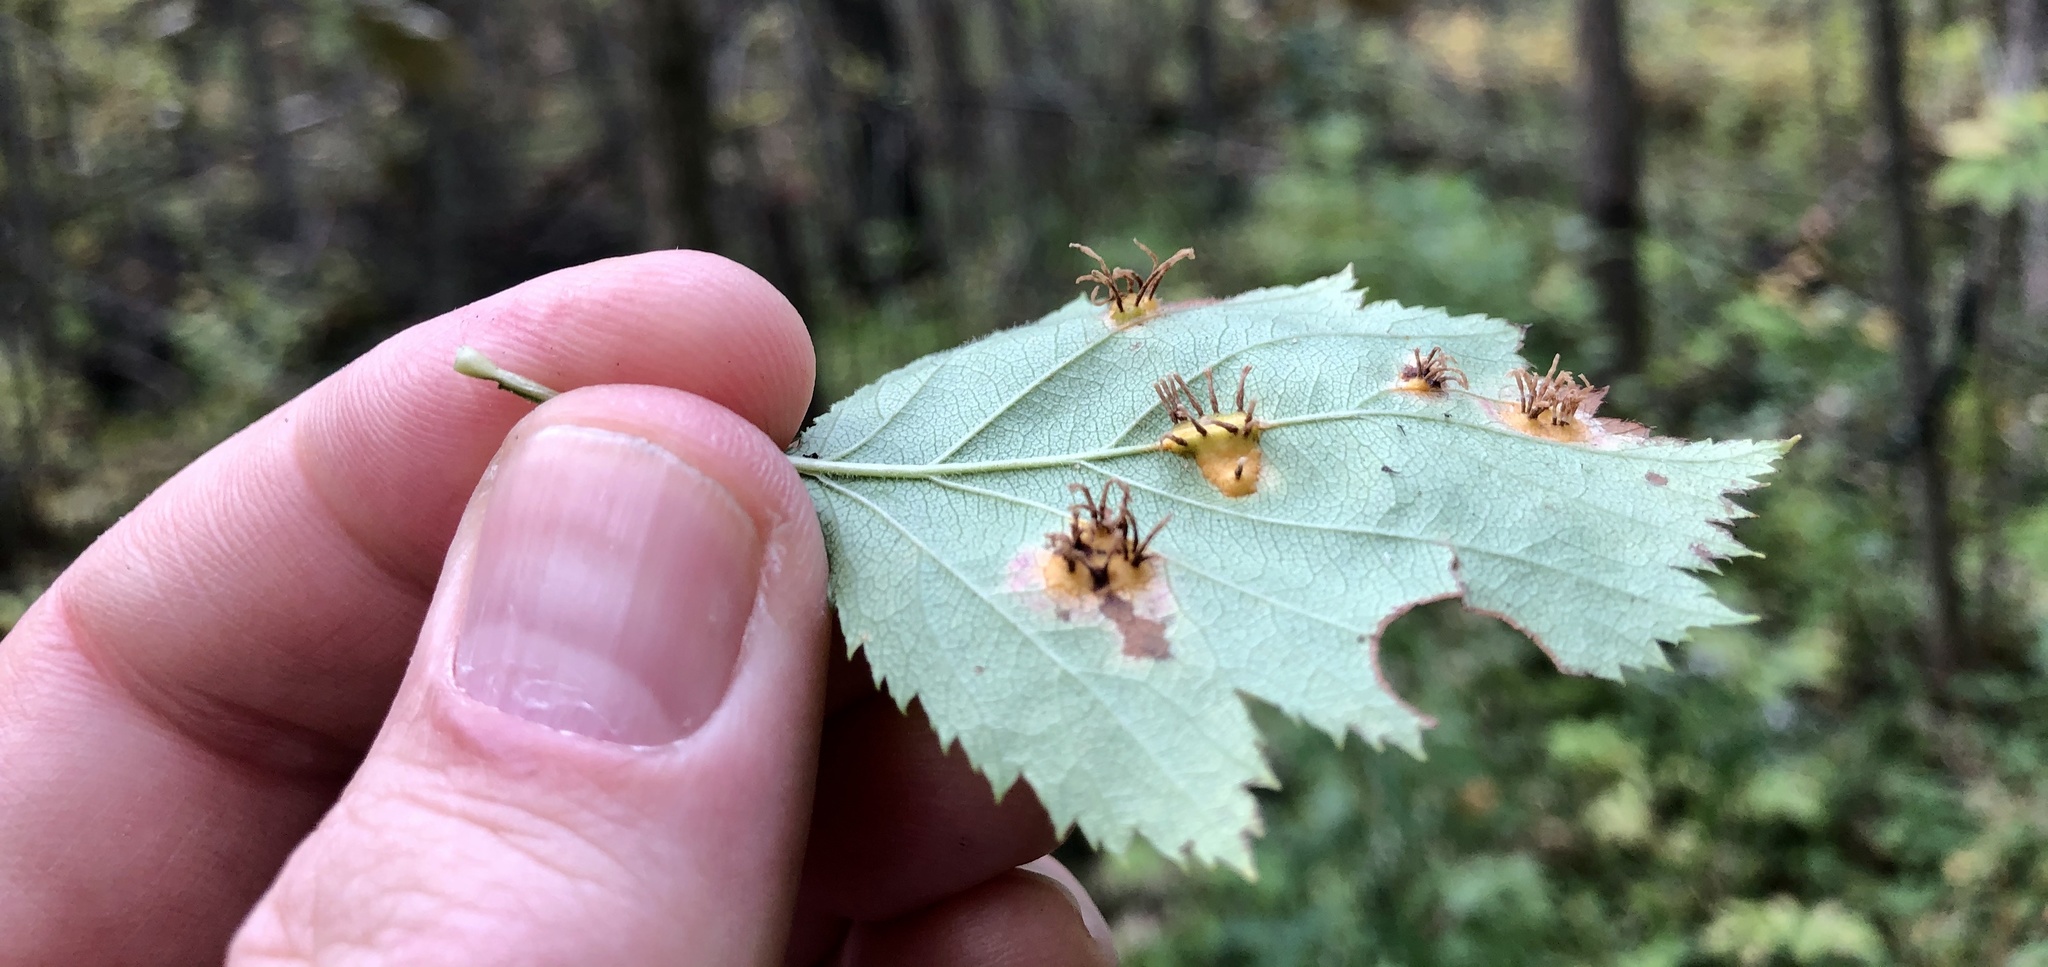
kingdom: Fungi
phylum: Basidiomycota
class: Pucciniomycetes
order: Pucciniales
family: Gymnosporangiaceae
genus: Gymnosporangium
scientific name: Gymnosporangium globosum
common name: Juniper-hawthorn rust
